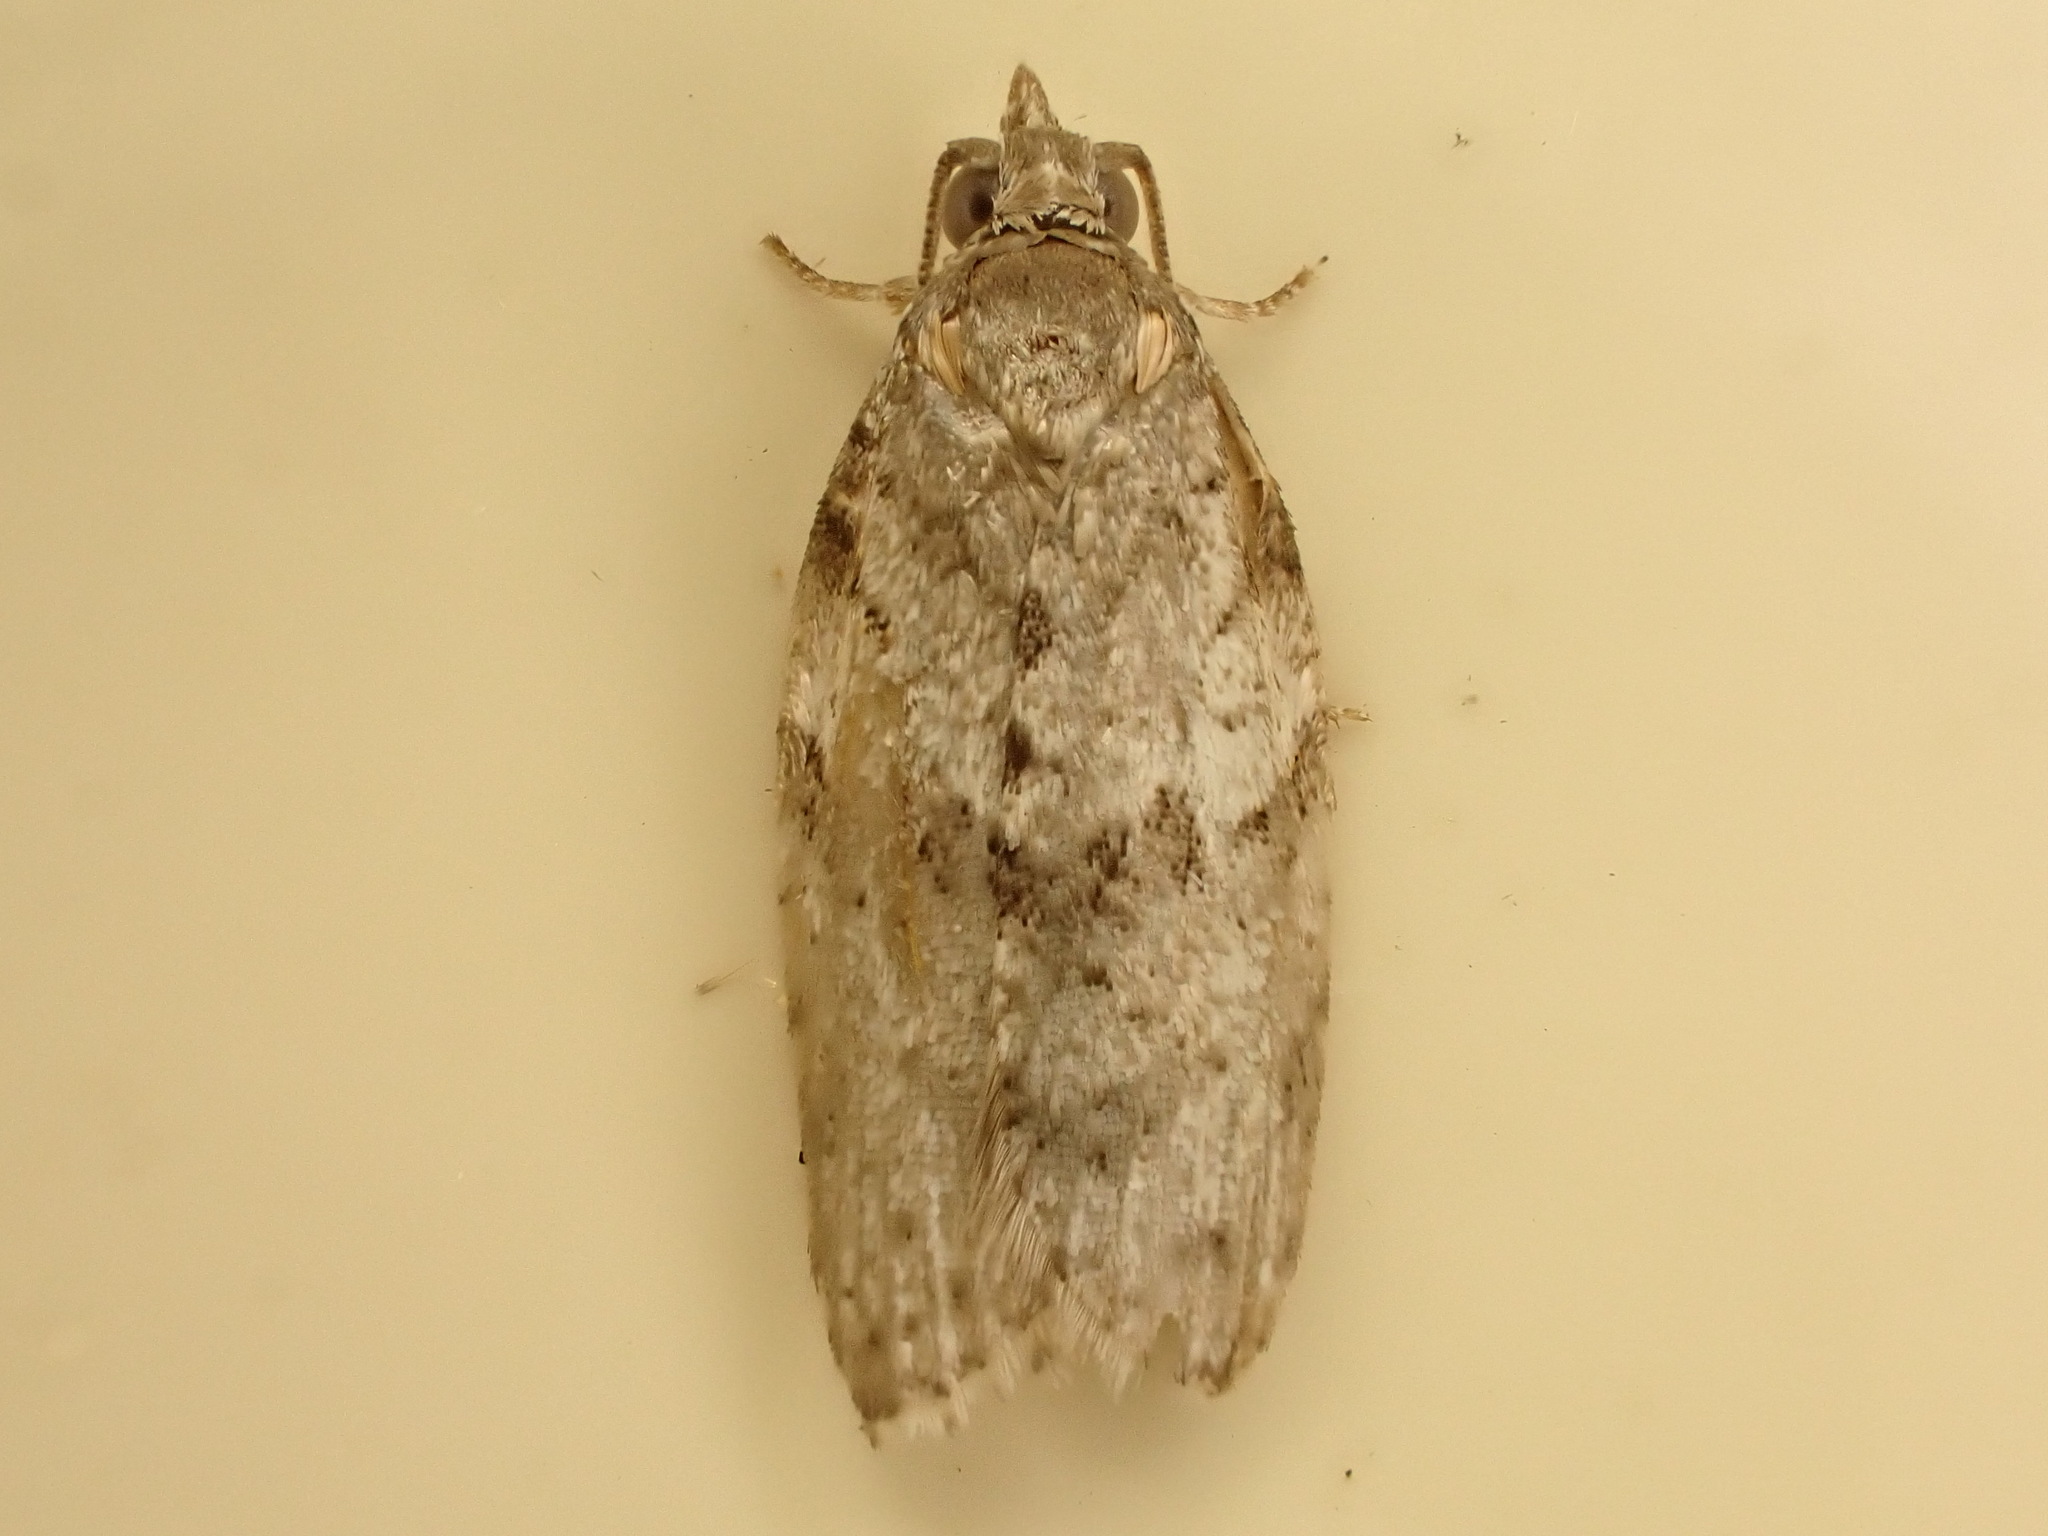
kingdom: Animalia
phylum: Arthropoda
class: Insecta
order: Lepidoptera
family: Tortricidae
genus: Isotenes
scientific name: Isotenes miserana
